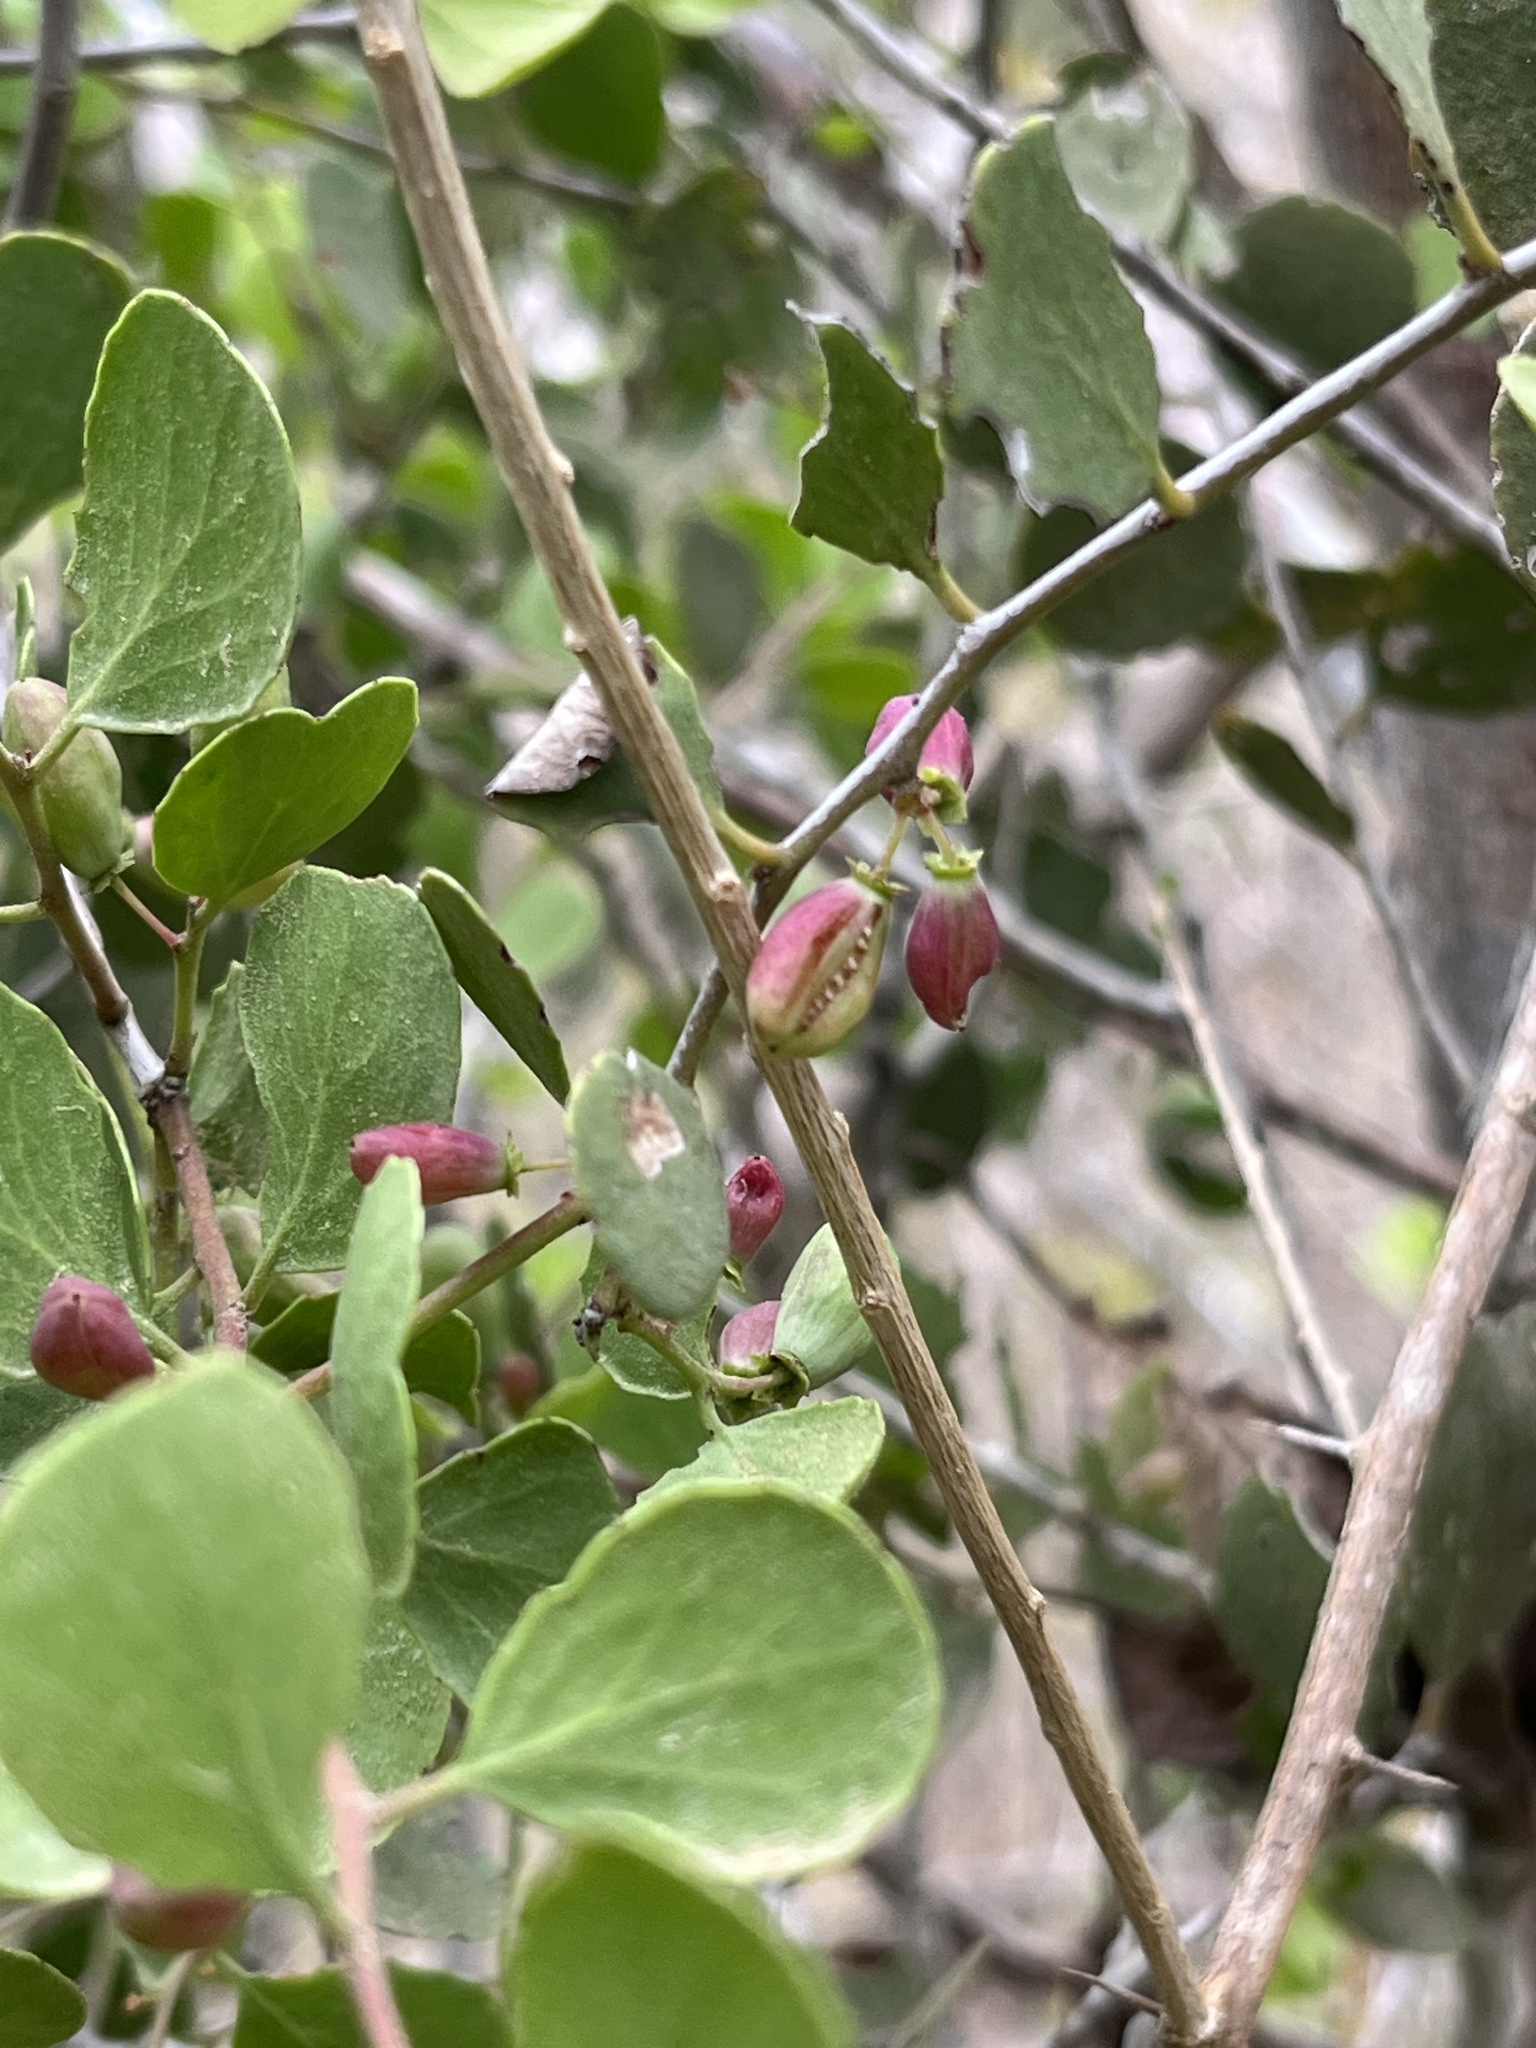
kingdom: Plantae
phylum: Tracheophyta
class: Magnoliopsida
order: Celastrales
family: Celastraceae
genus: Tricerma
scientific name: Tricerma octogonum
